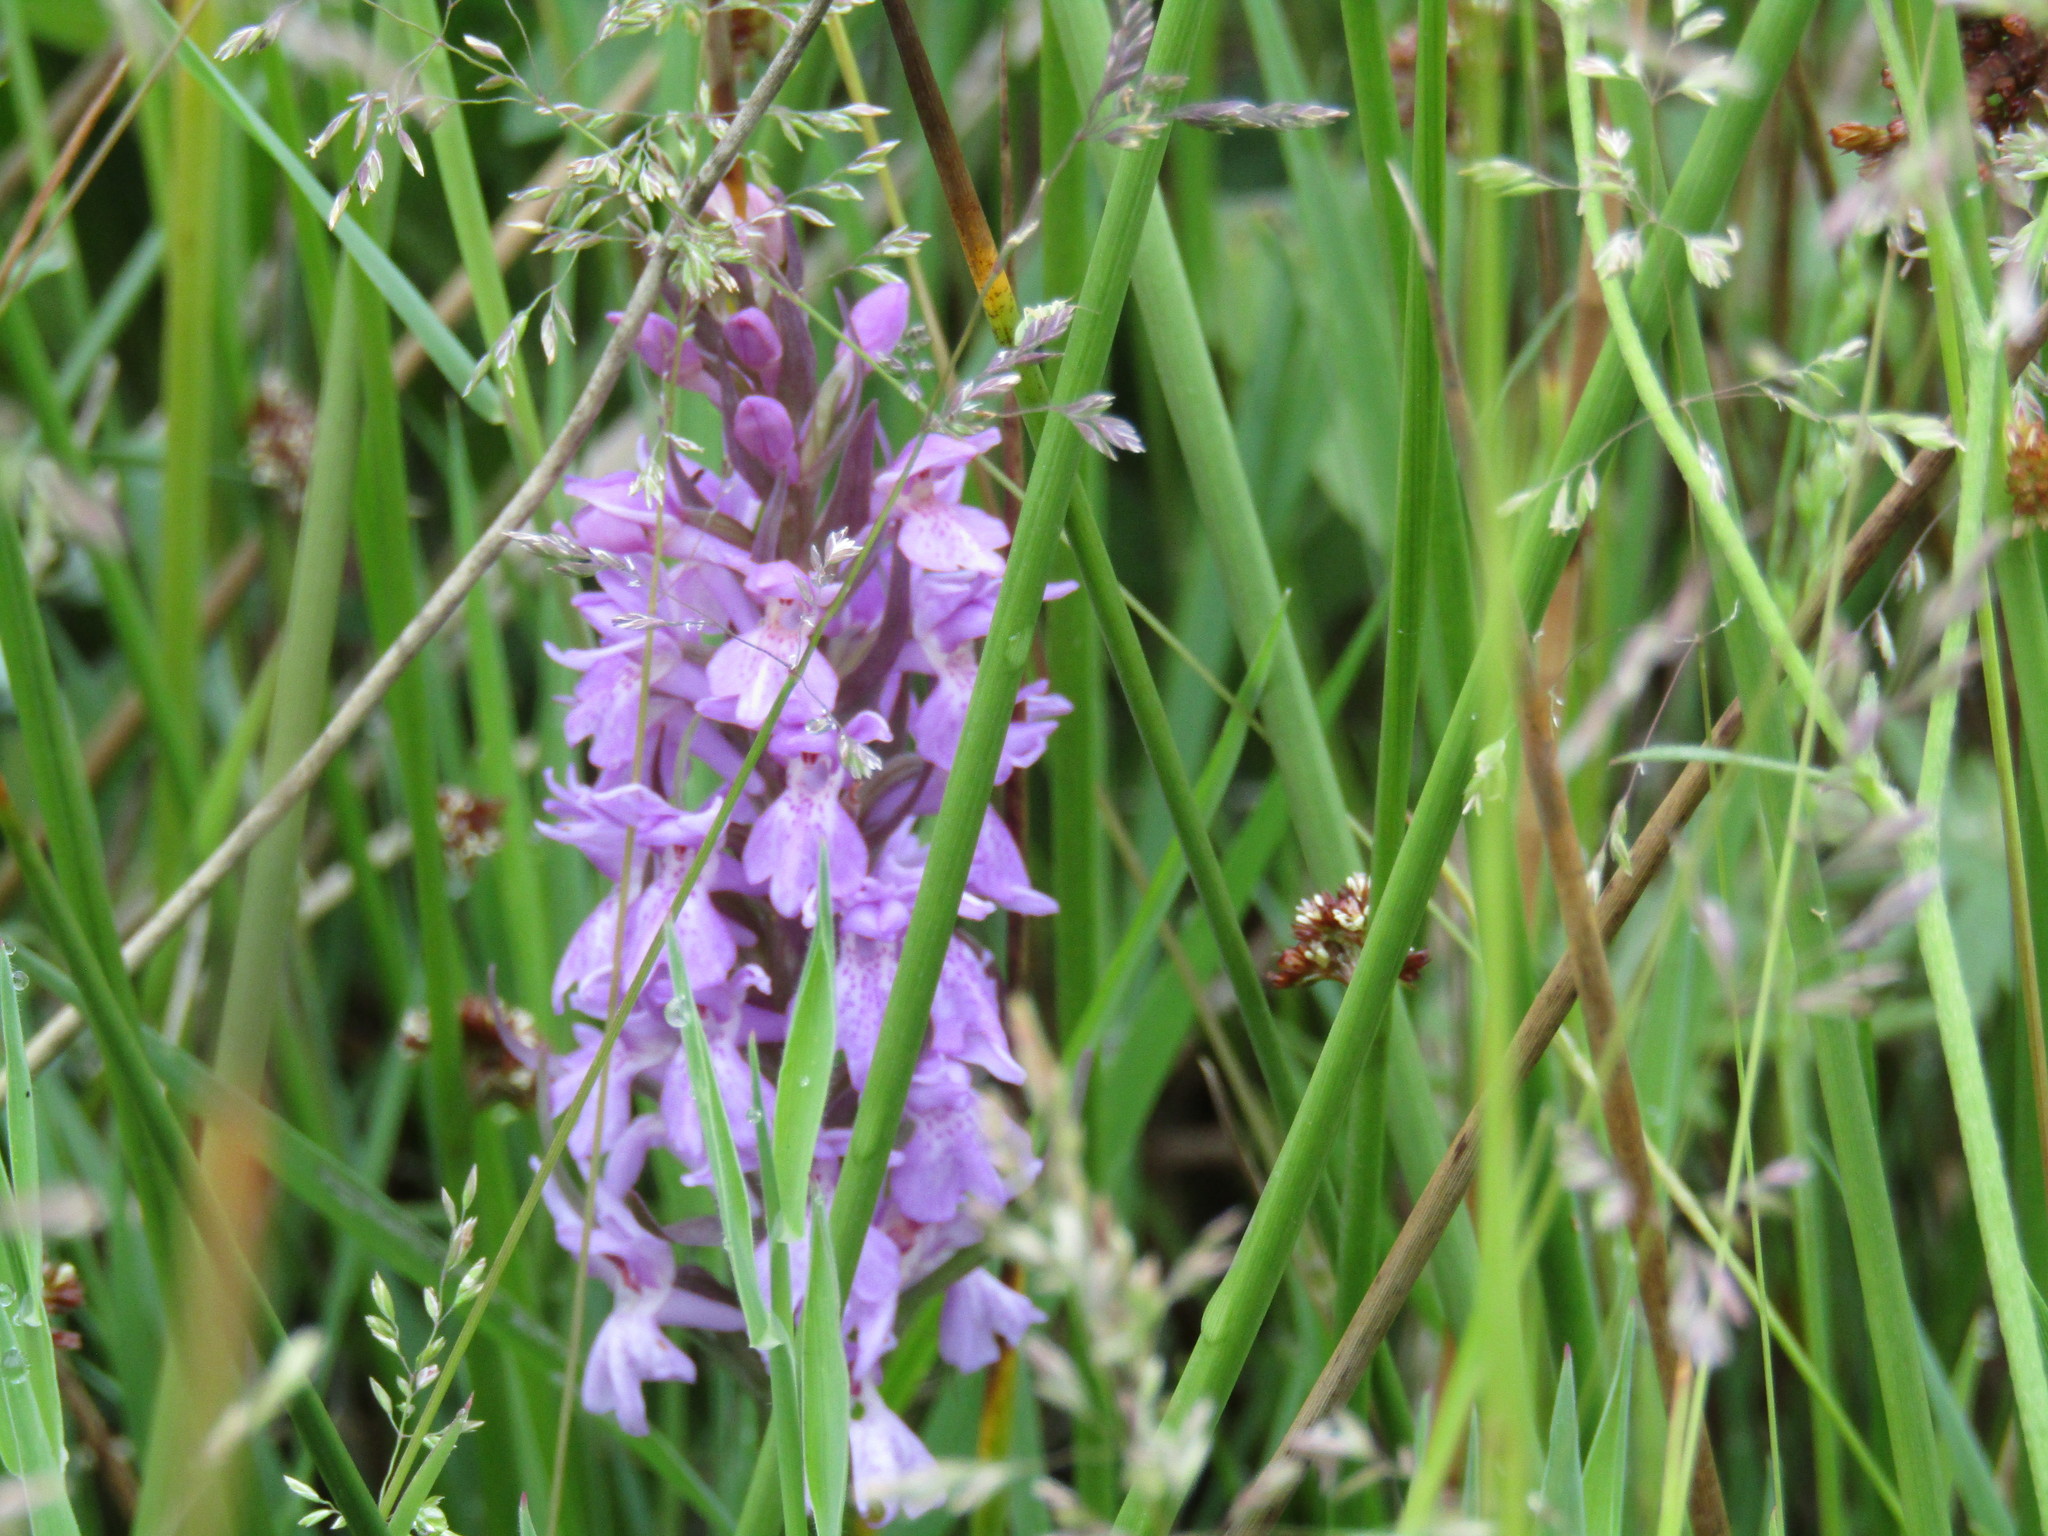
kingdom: Plantae
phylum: Tracheophyta
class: Liliopsida
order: Asparagales
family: Orchidaceae
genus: Dactylorhiza
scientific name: Dactylorhiza majalis
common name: Marsh orchid
